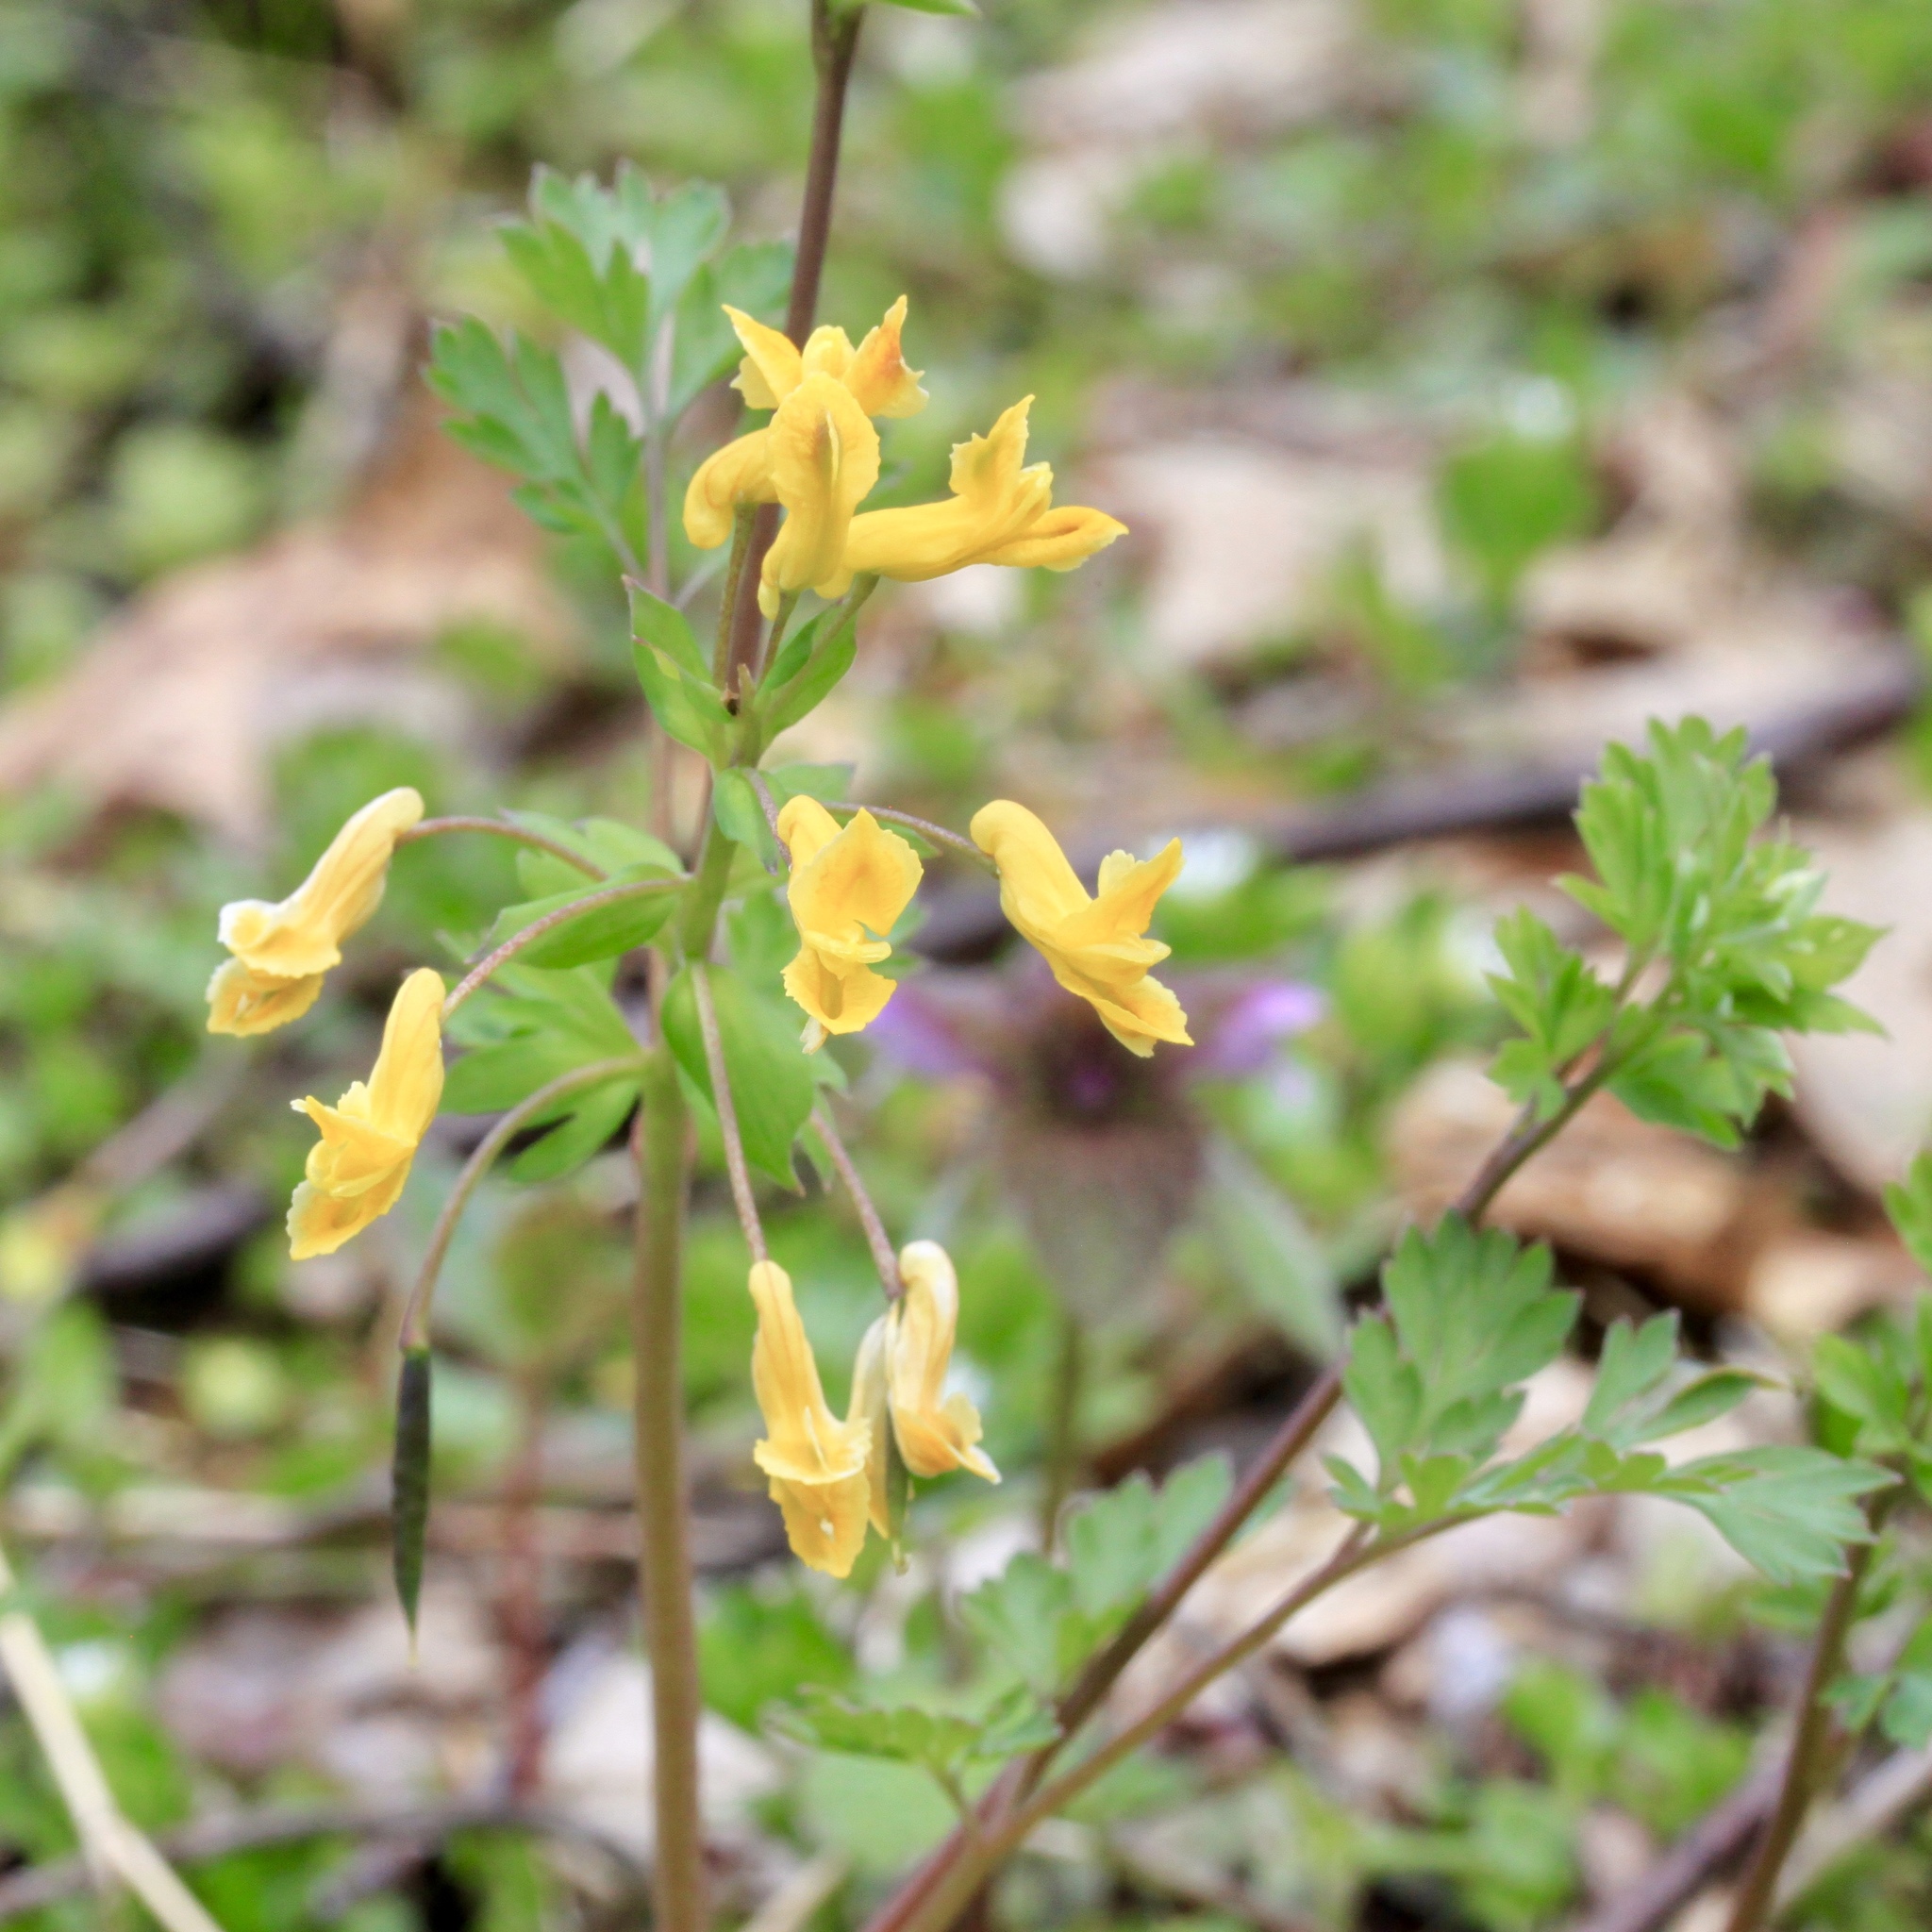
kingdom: Plantae
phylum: Tracheophyta
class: Magnoliopsida
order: Ranunculales
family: Papaveraceae
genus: Corydalis
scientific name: Corydalis flavula
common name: Yellow corydalis
